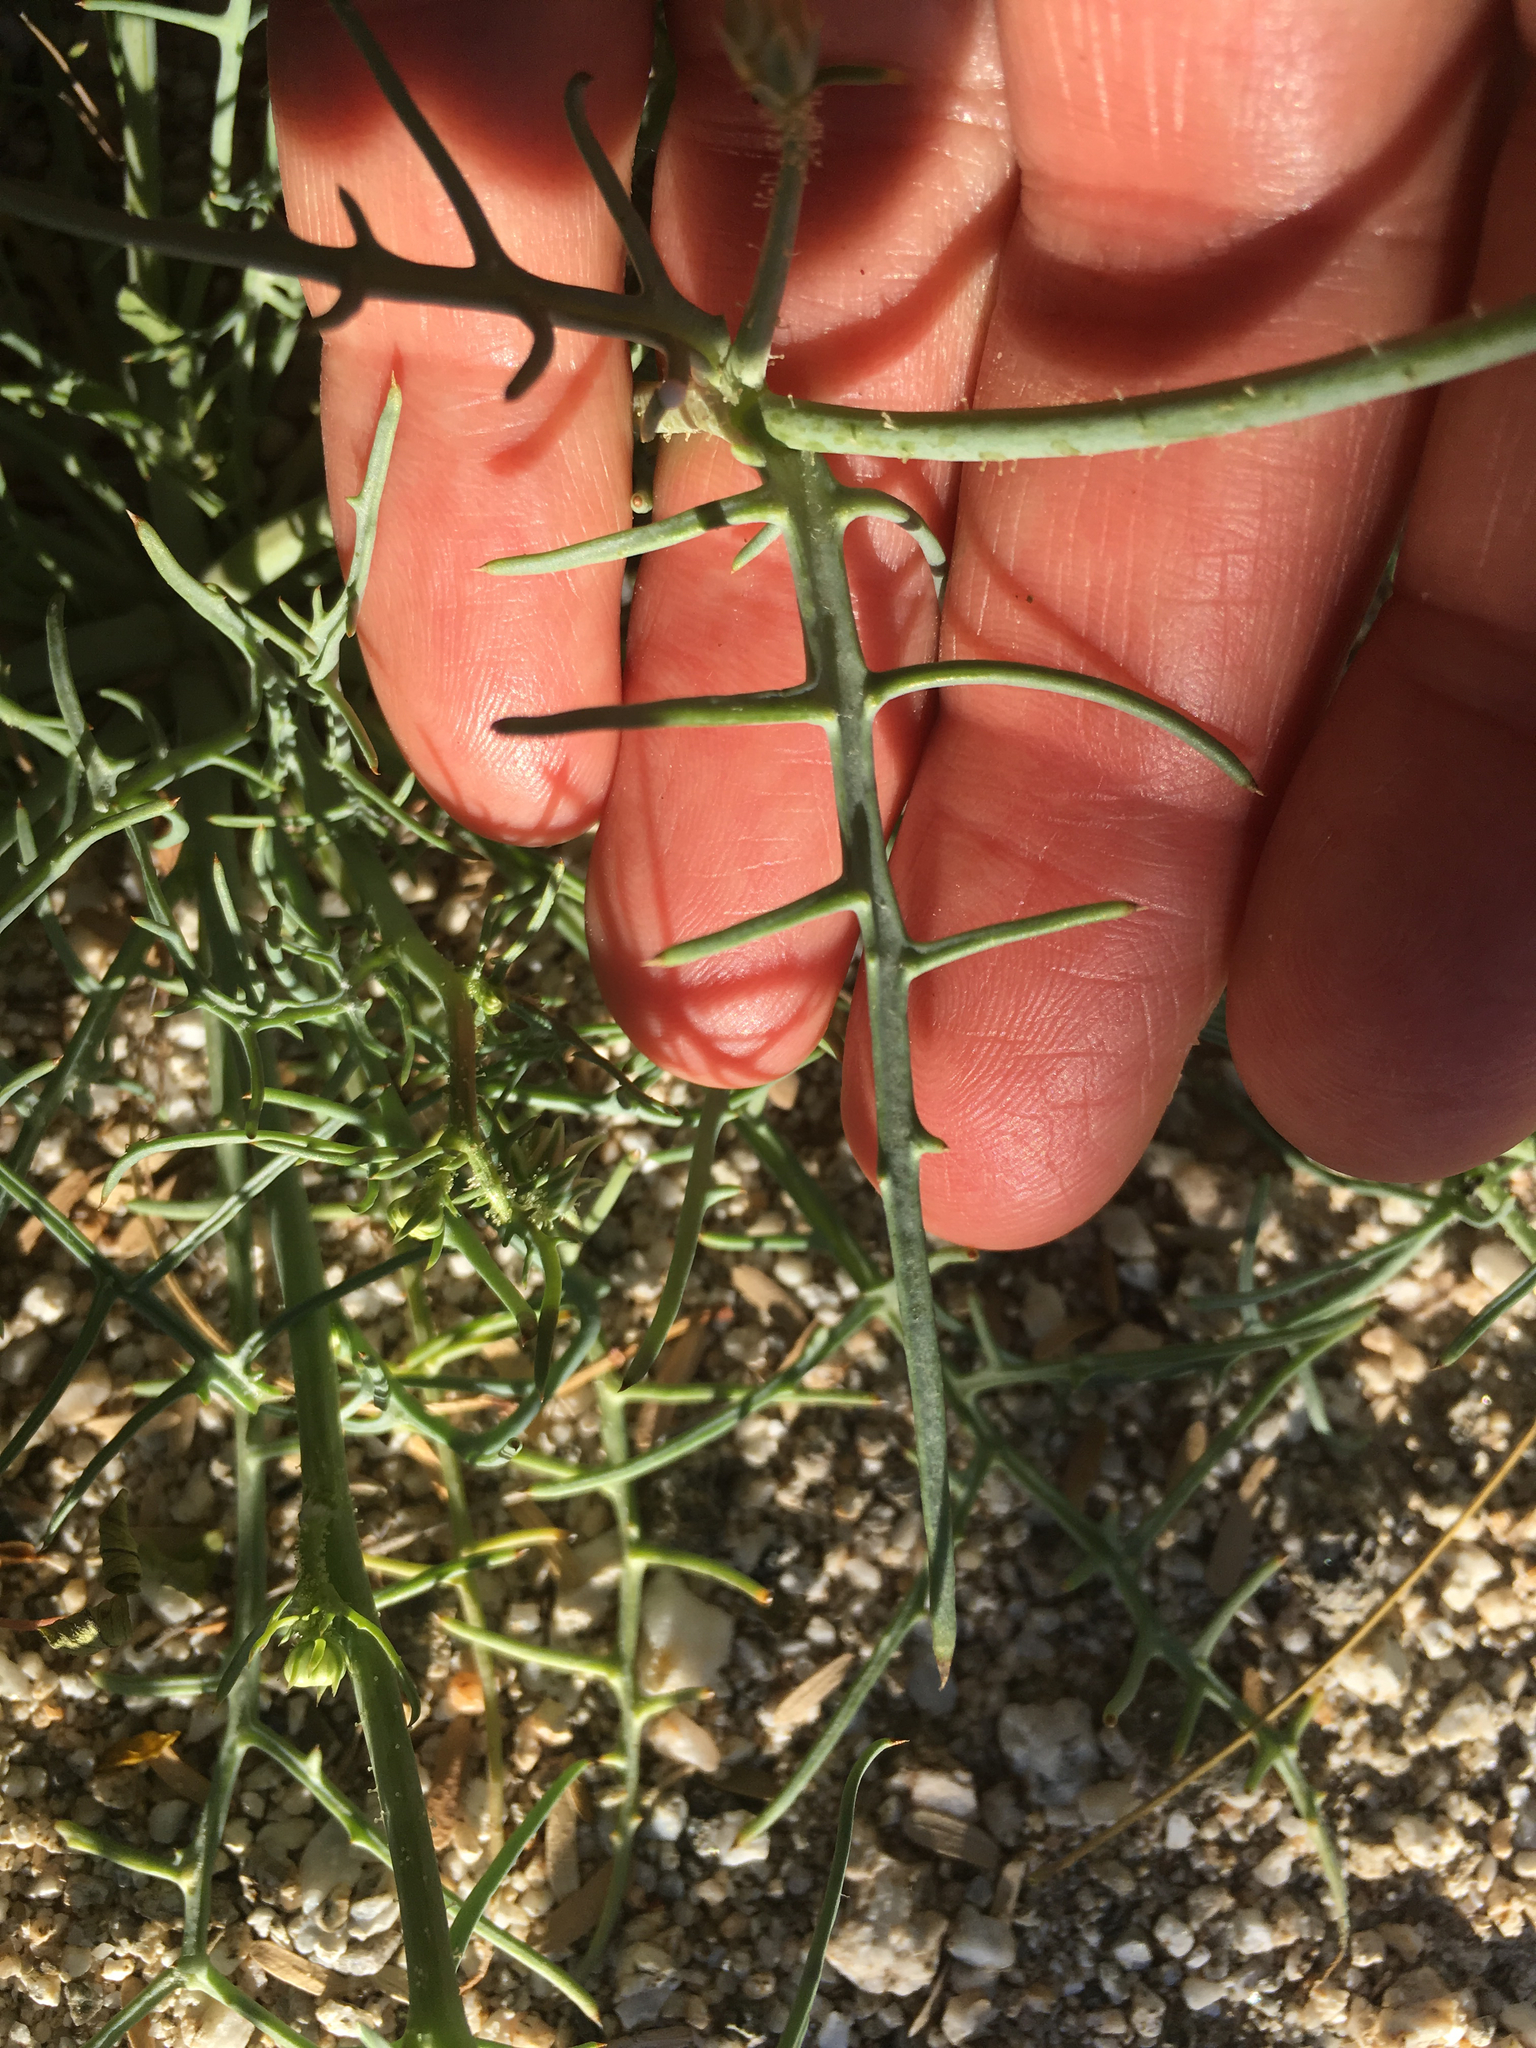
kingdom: Plantae
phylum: Tracheophyta
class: Magnoliopsida
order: Asterales
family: Asteraceae
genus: Calycoseris
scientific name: Calycoseris wrightii
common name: White tackstem
